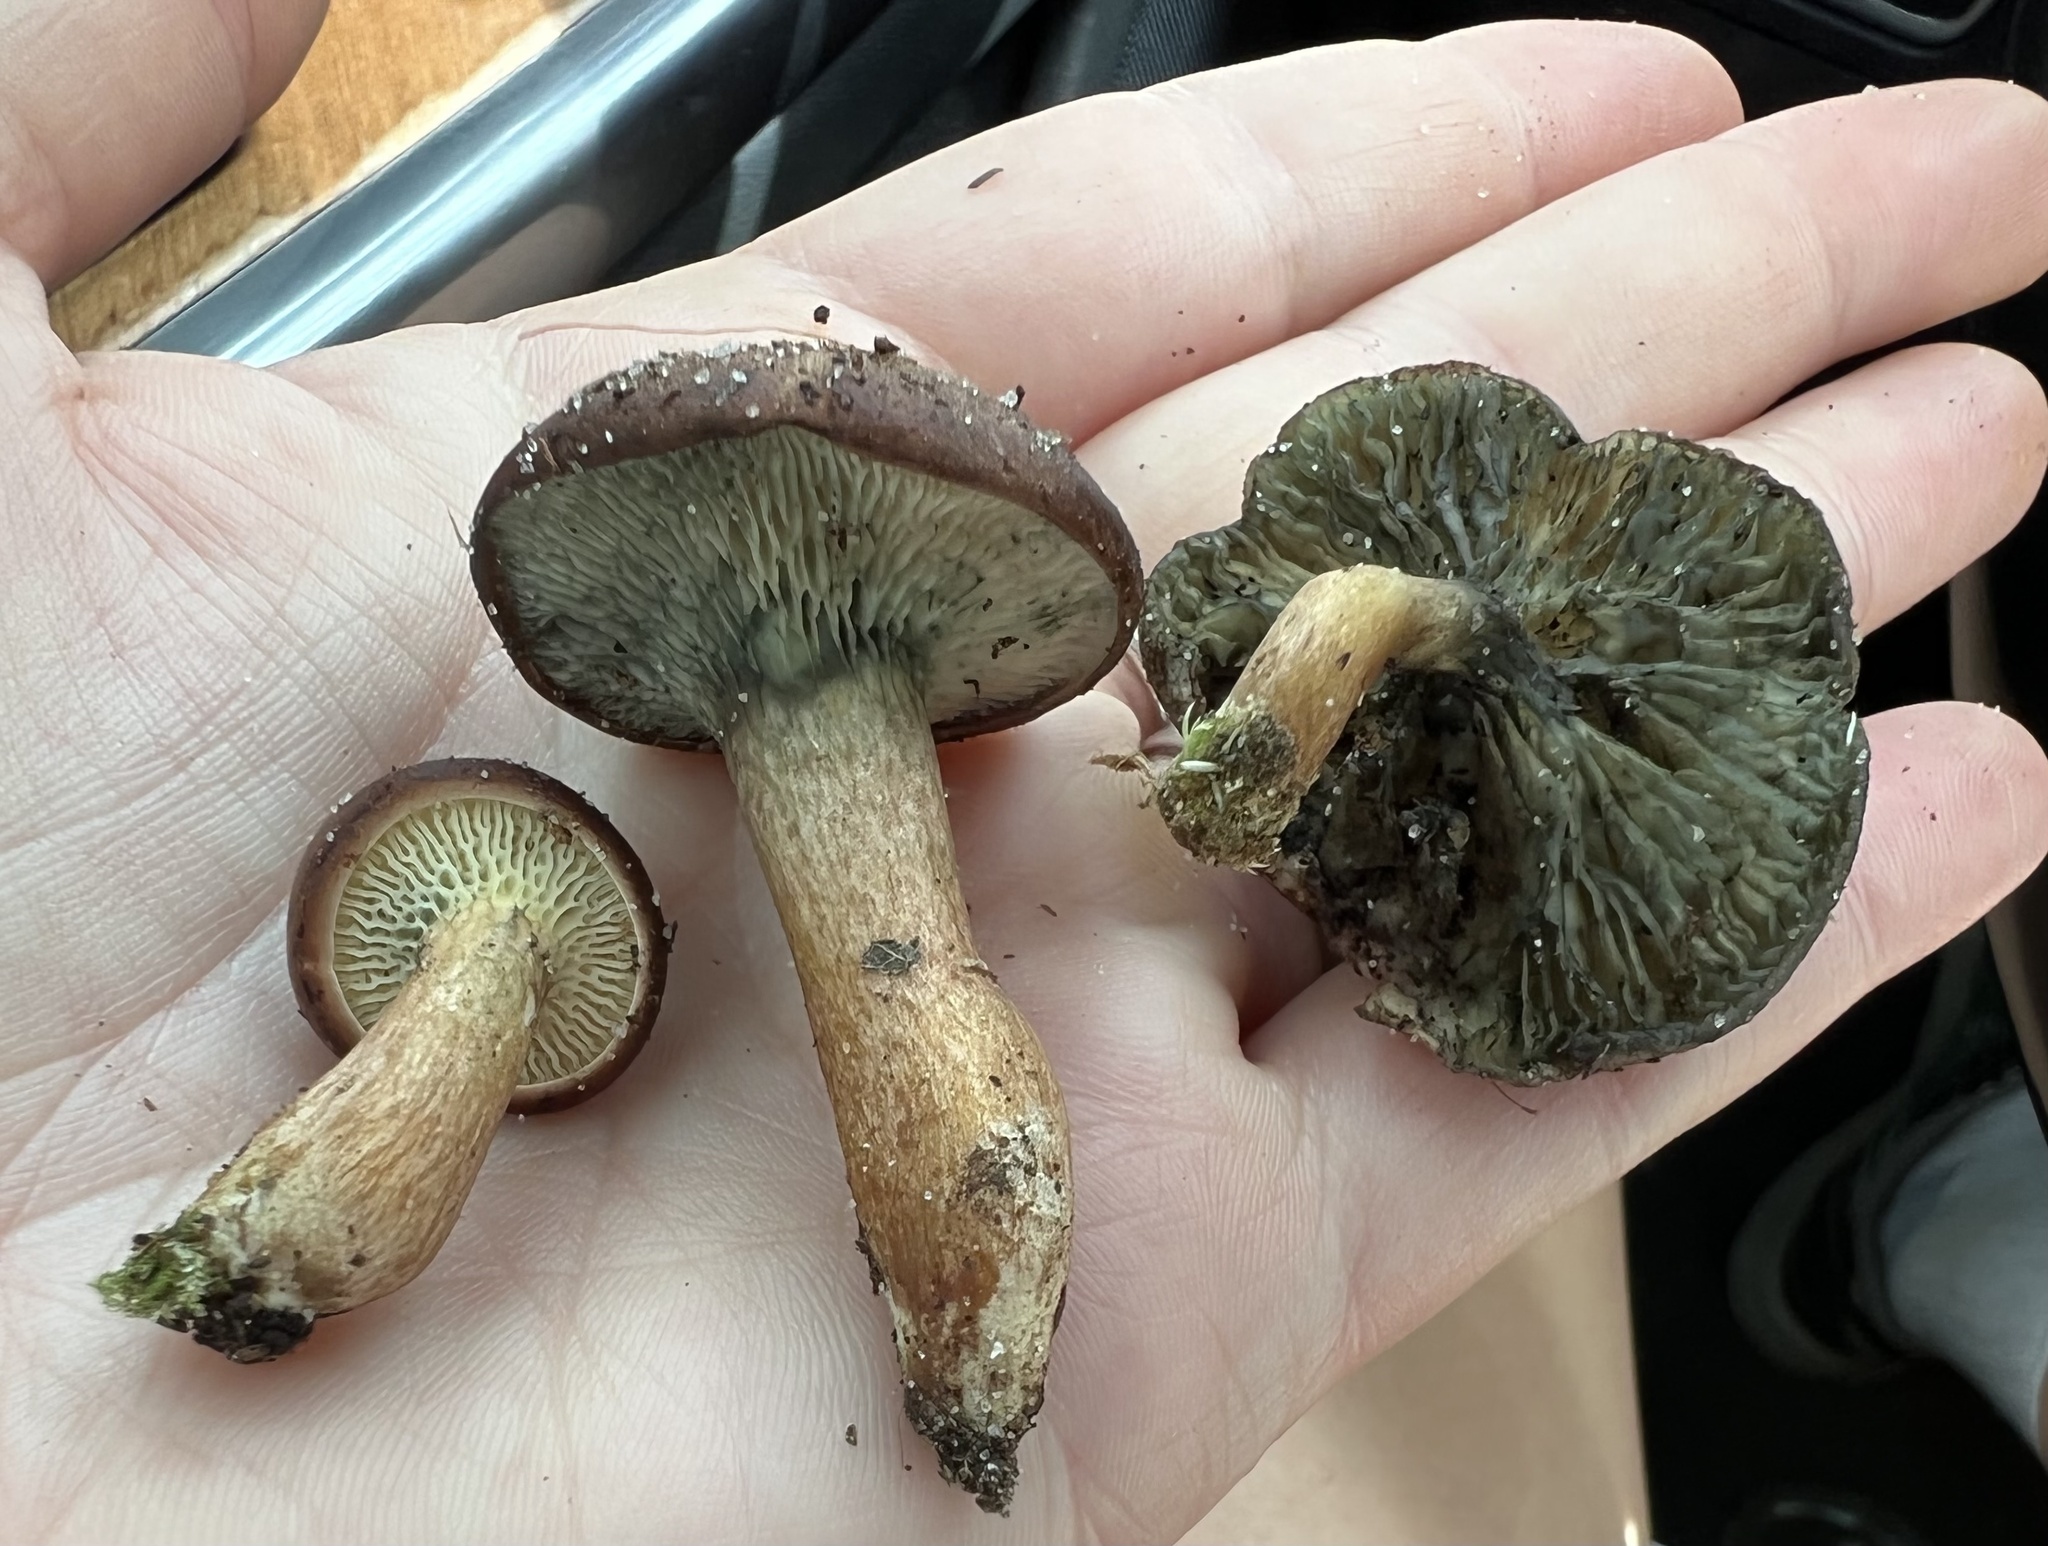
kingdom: Fungi
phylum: Basidiomycota
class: Agaricomycetes
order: Boletales
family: Boletaceae
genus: Phylloporopsis
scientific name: Phylloporopsis boletinoides
